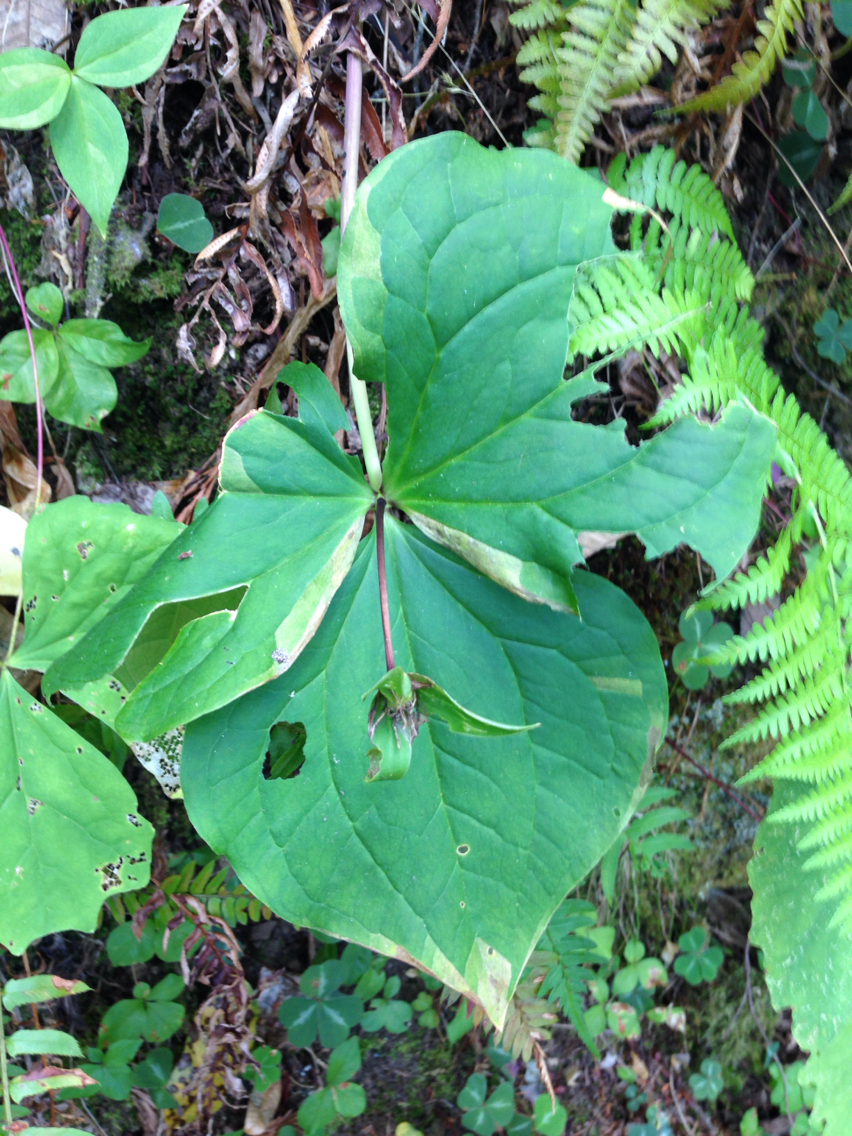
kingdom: Plantae
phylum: Tracheophyta
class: Liliopsida
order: Liliales
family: Melanthiaceae
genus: Trillium
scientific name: Trillium ovatum
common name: Pacific trillium
